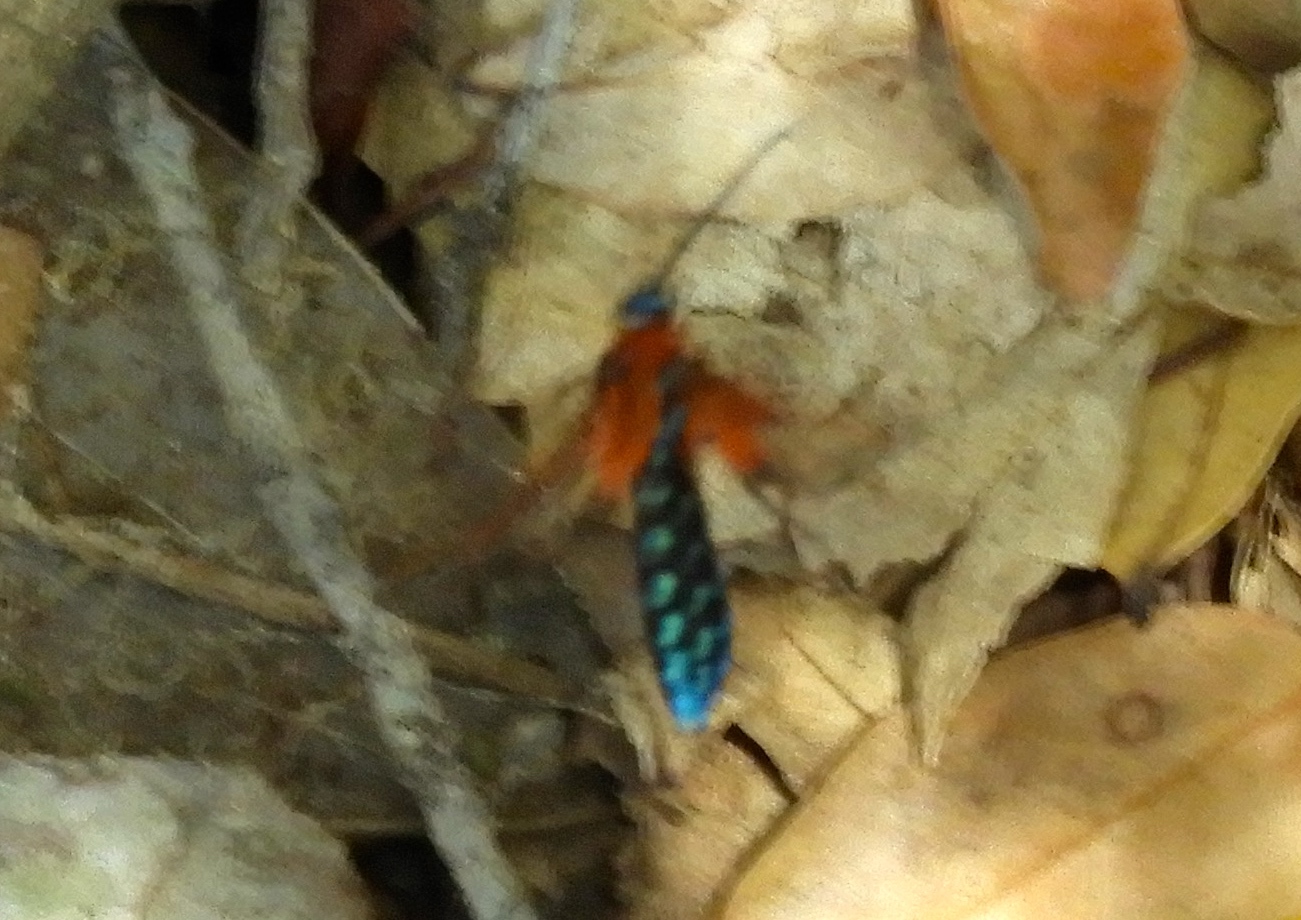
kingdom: Animalia
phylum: Arthropoda
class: Insecta
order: Lepidoptera
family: Erebidae
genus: Lepidoneiva
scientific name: Lepidoneiva
